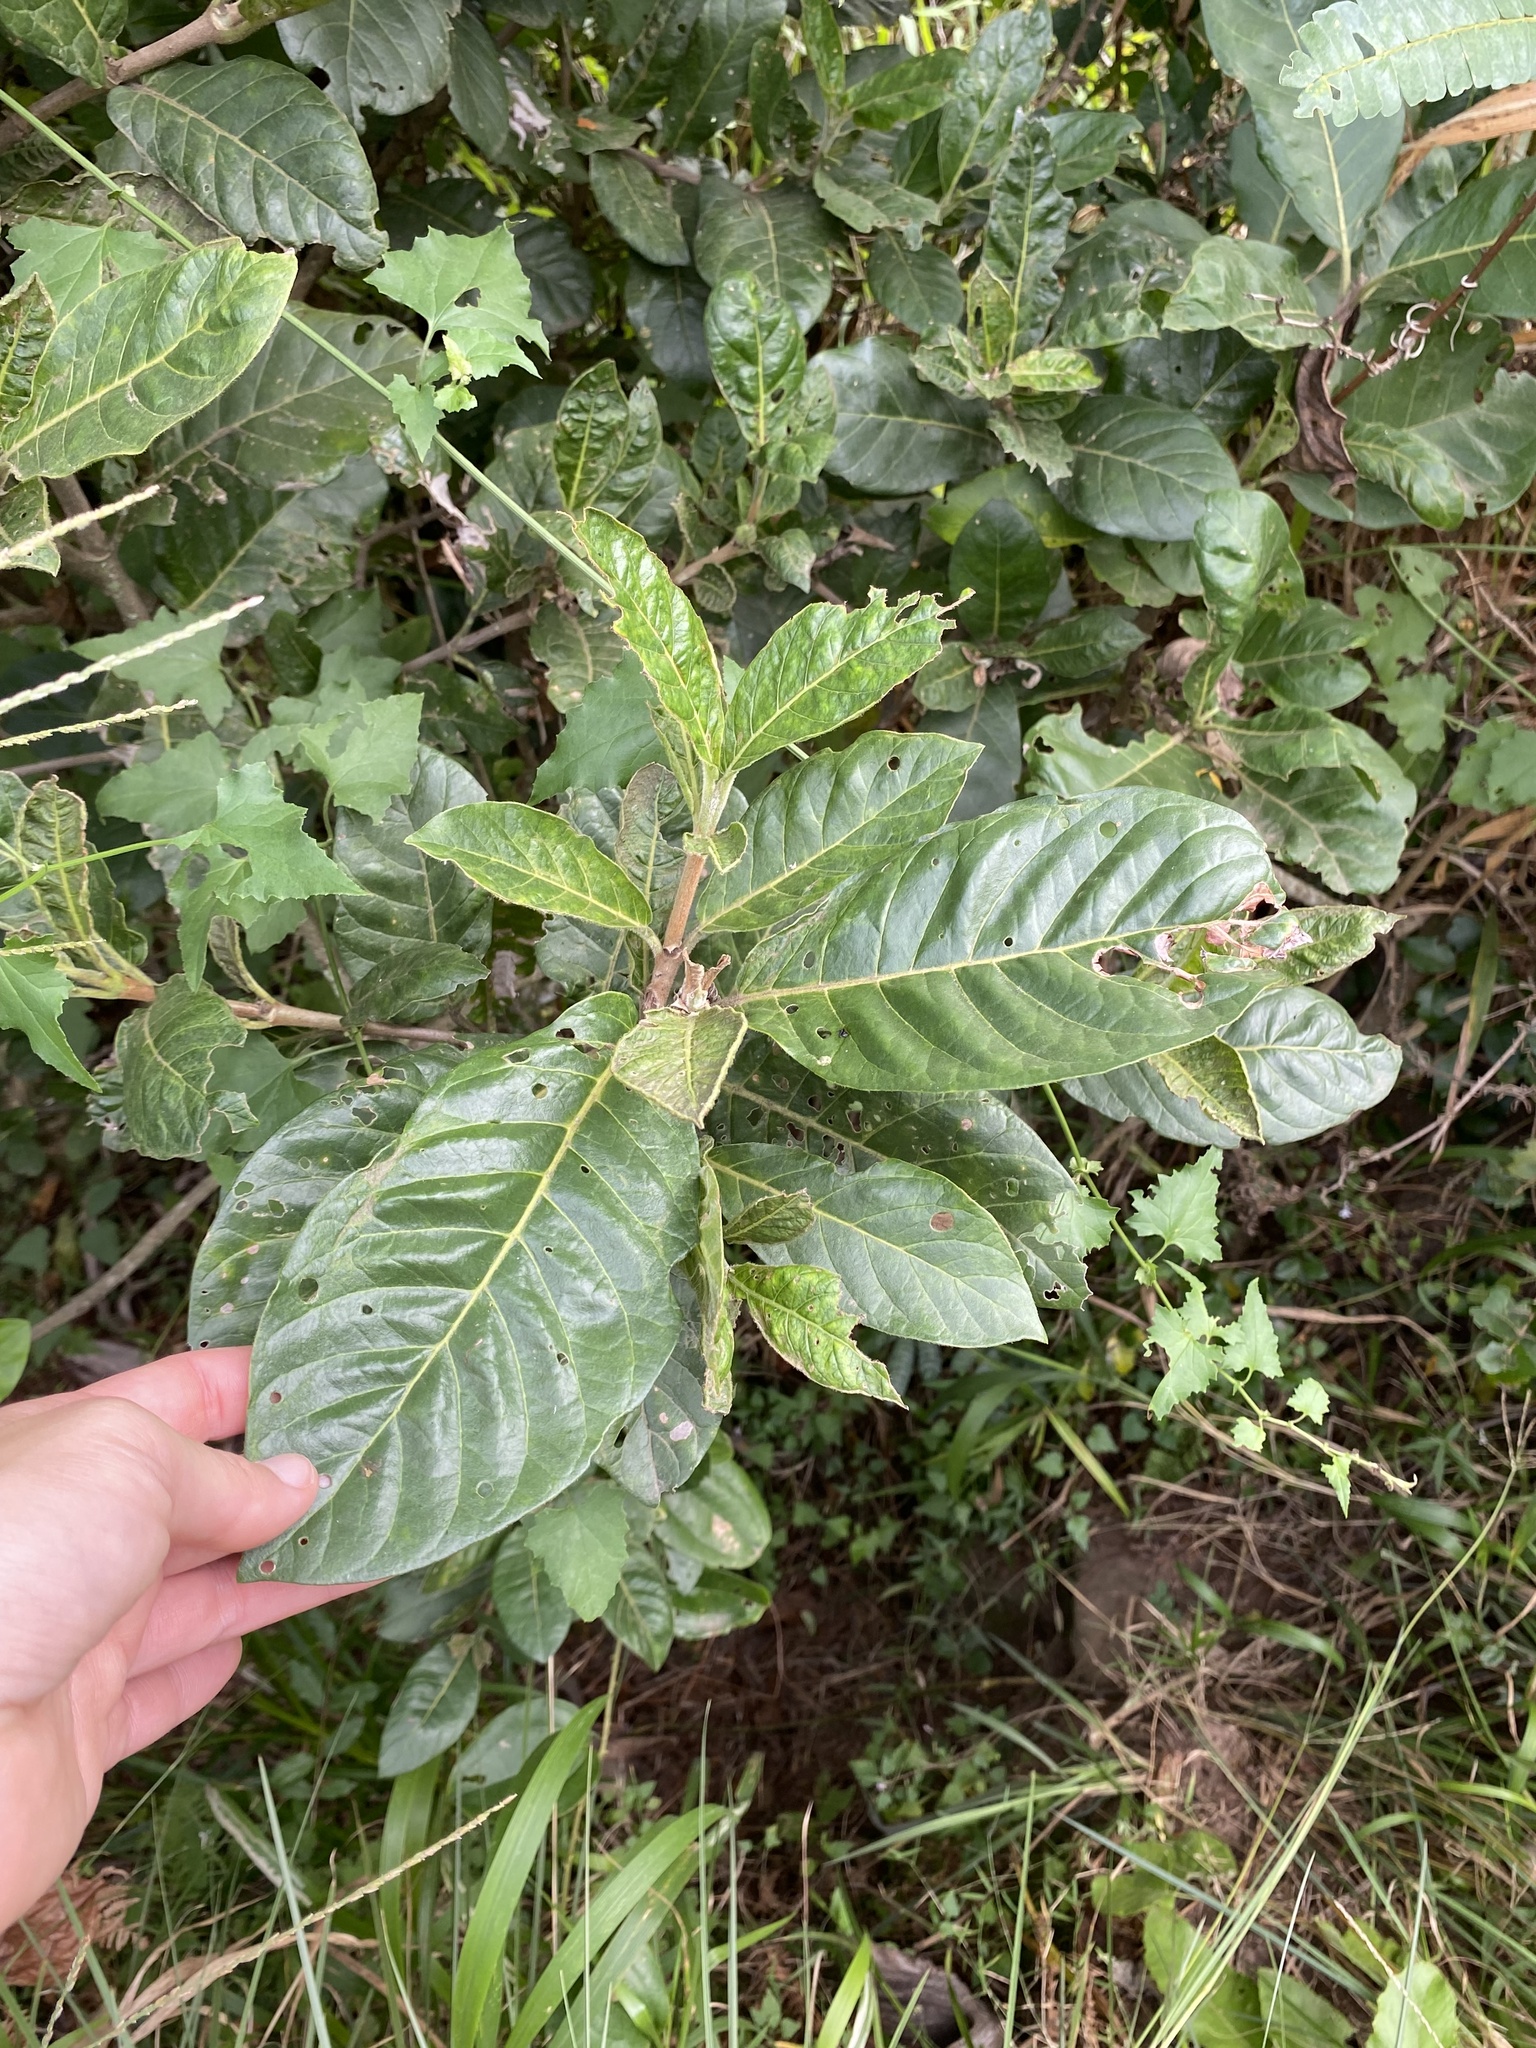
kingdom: Plantae
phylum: Tracheophyta
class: Magnoliopsida
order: Gentianales
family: Rubiaceae
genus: Burchellia
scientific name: Burchellia bubalina
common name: Wild pomegranate
